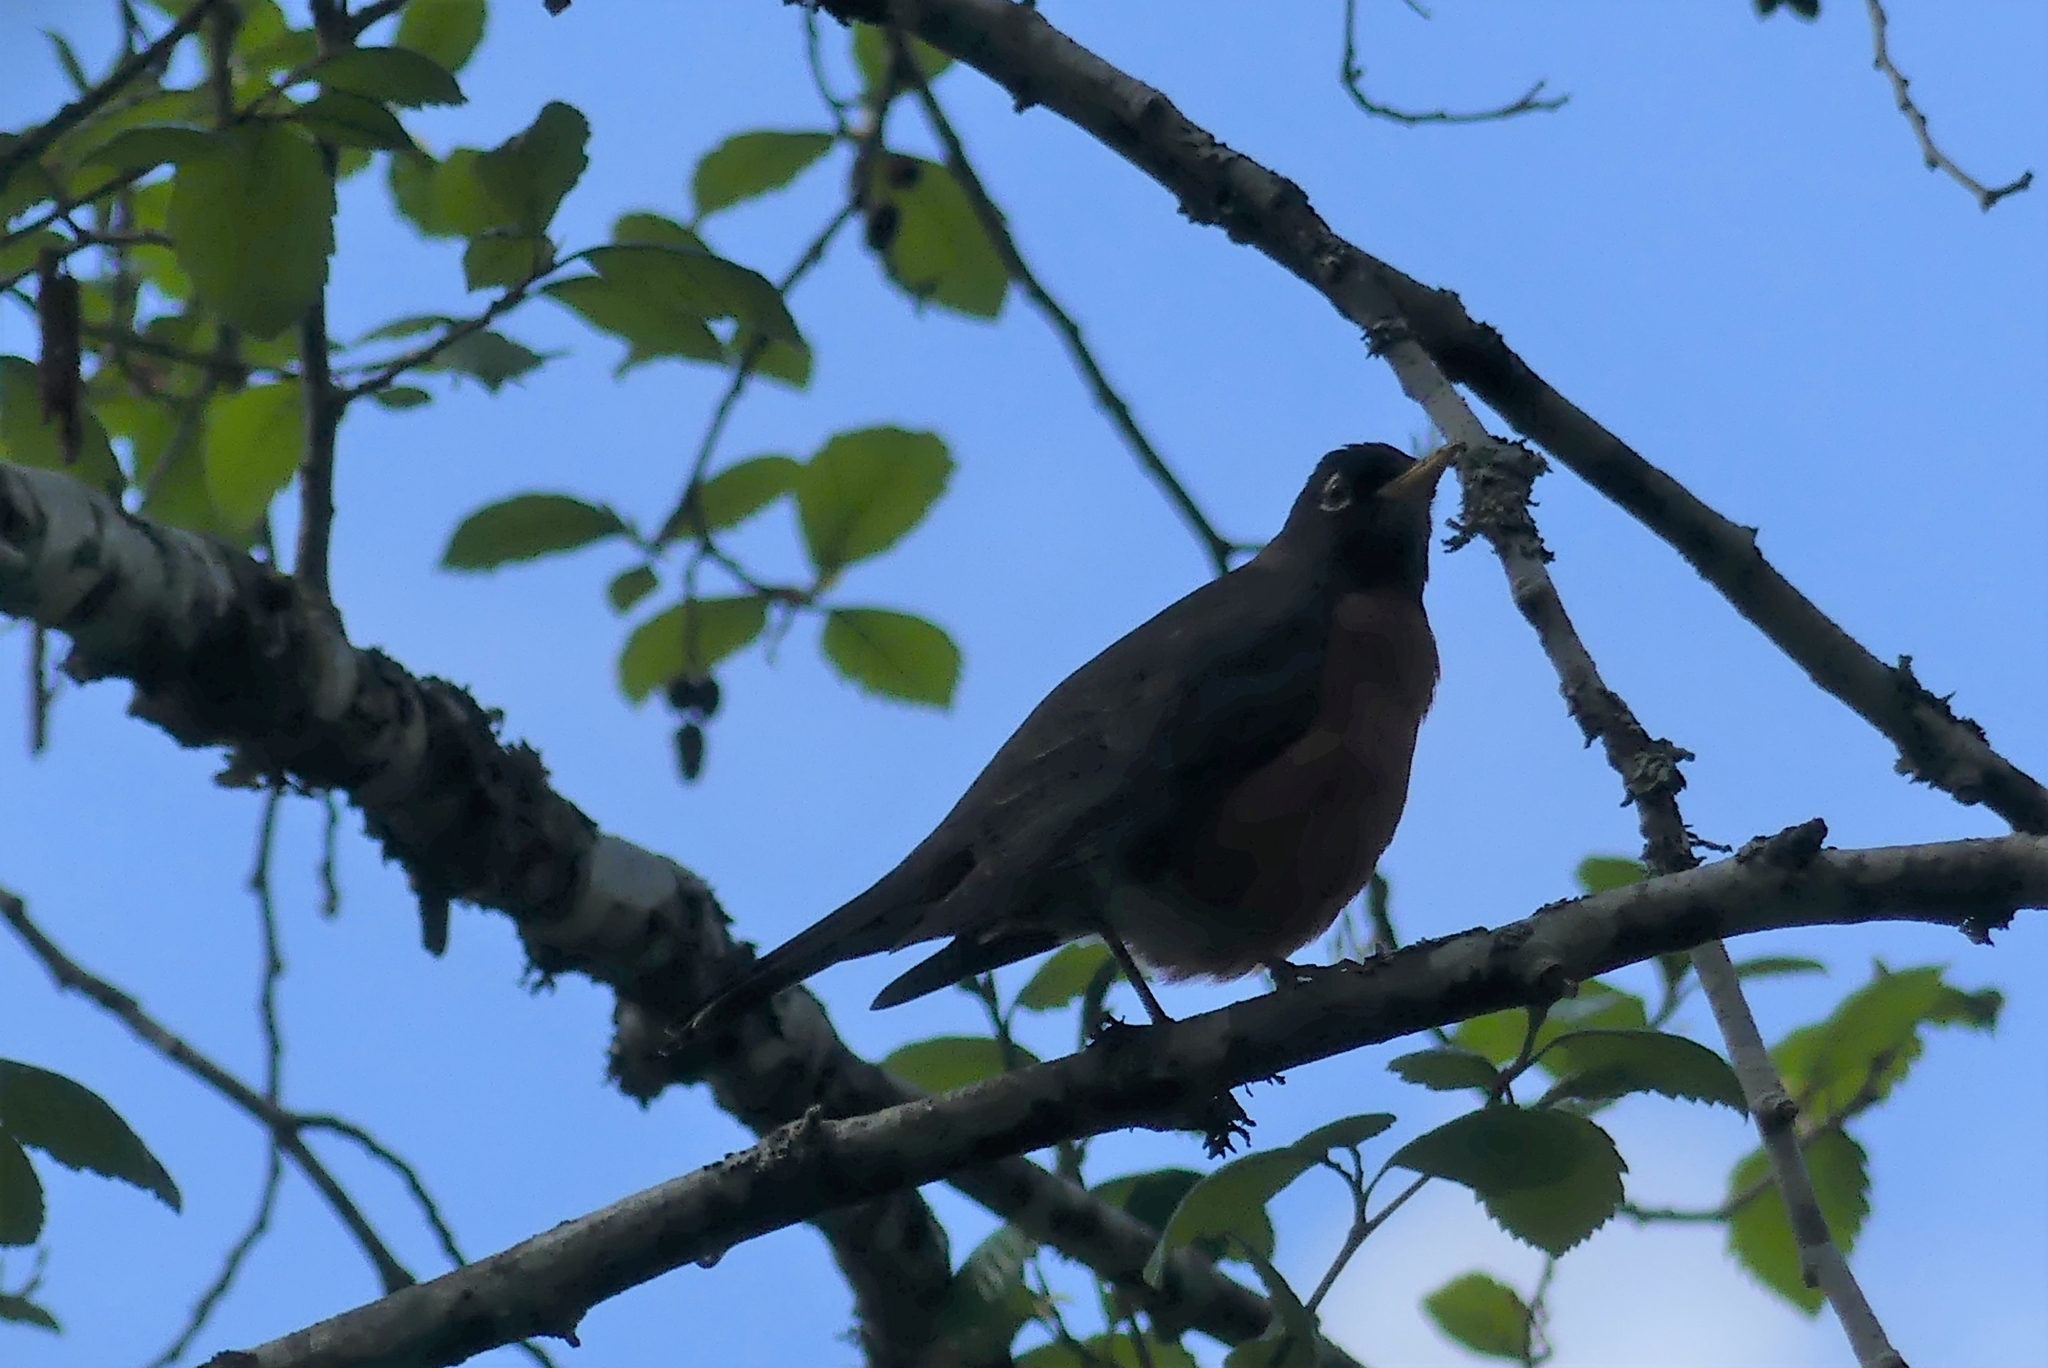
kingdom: Animalia
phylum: Chordata
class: Aves
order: Passeriformes
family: Turdidae
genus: Turdus
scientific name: Turdus migratorius
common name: American robin
